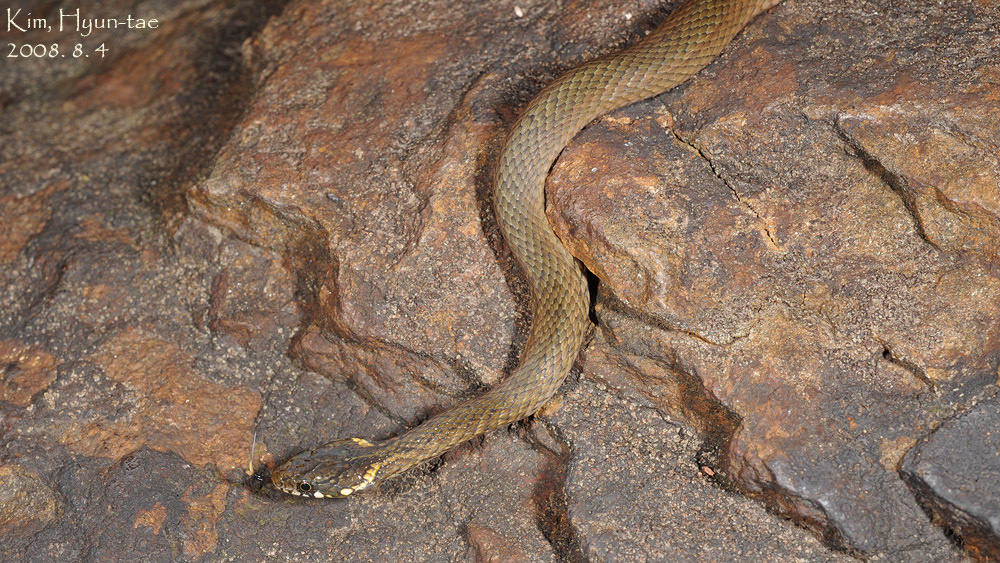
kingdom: Animalia
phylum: Chordata
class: Squamata
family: Colubridae
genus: Hebius
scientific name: Hebius vibakari
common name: Japanese keelback
